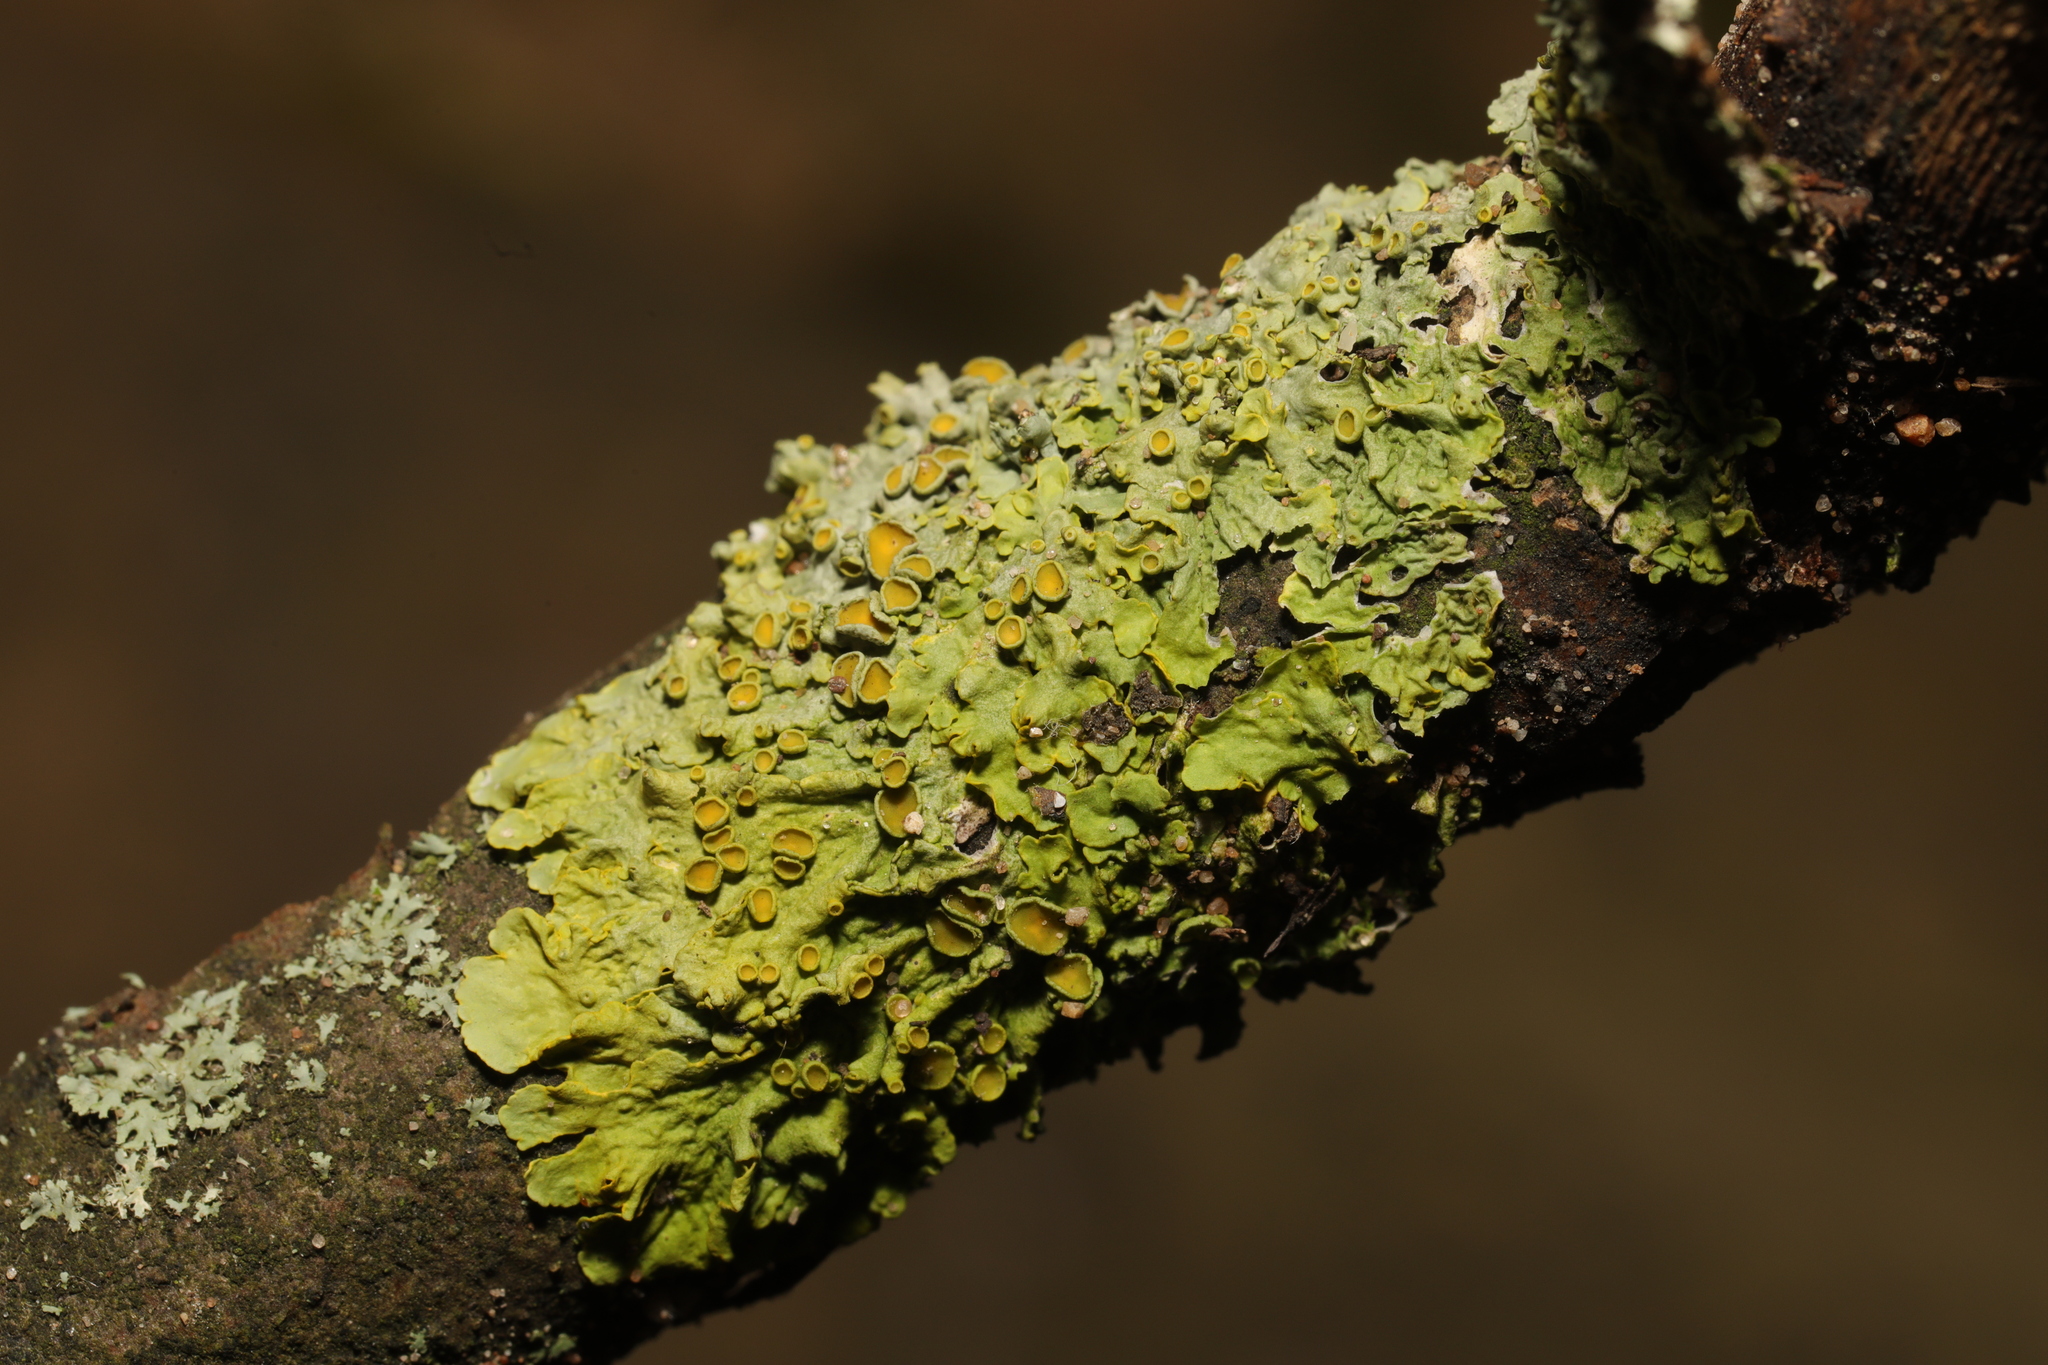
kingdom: Fungi
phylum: Ascomycota
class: Lecanoromycetes
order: Teloschistales
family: Teloschistaceae
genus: Xanthoria
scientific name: Xanthoria parietina
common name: Common orange lichen
